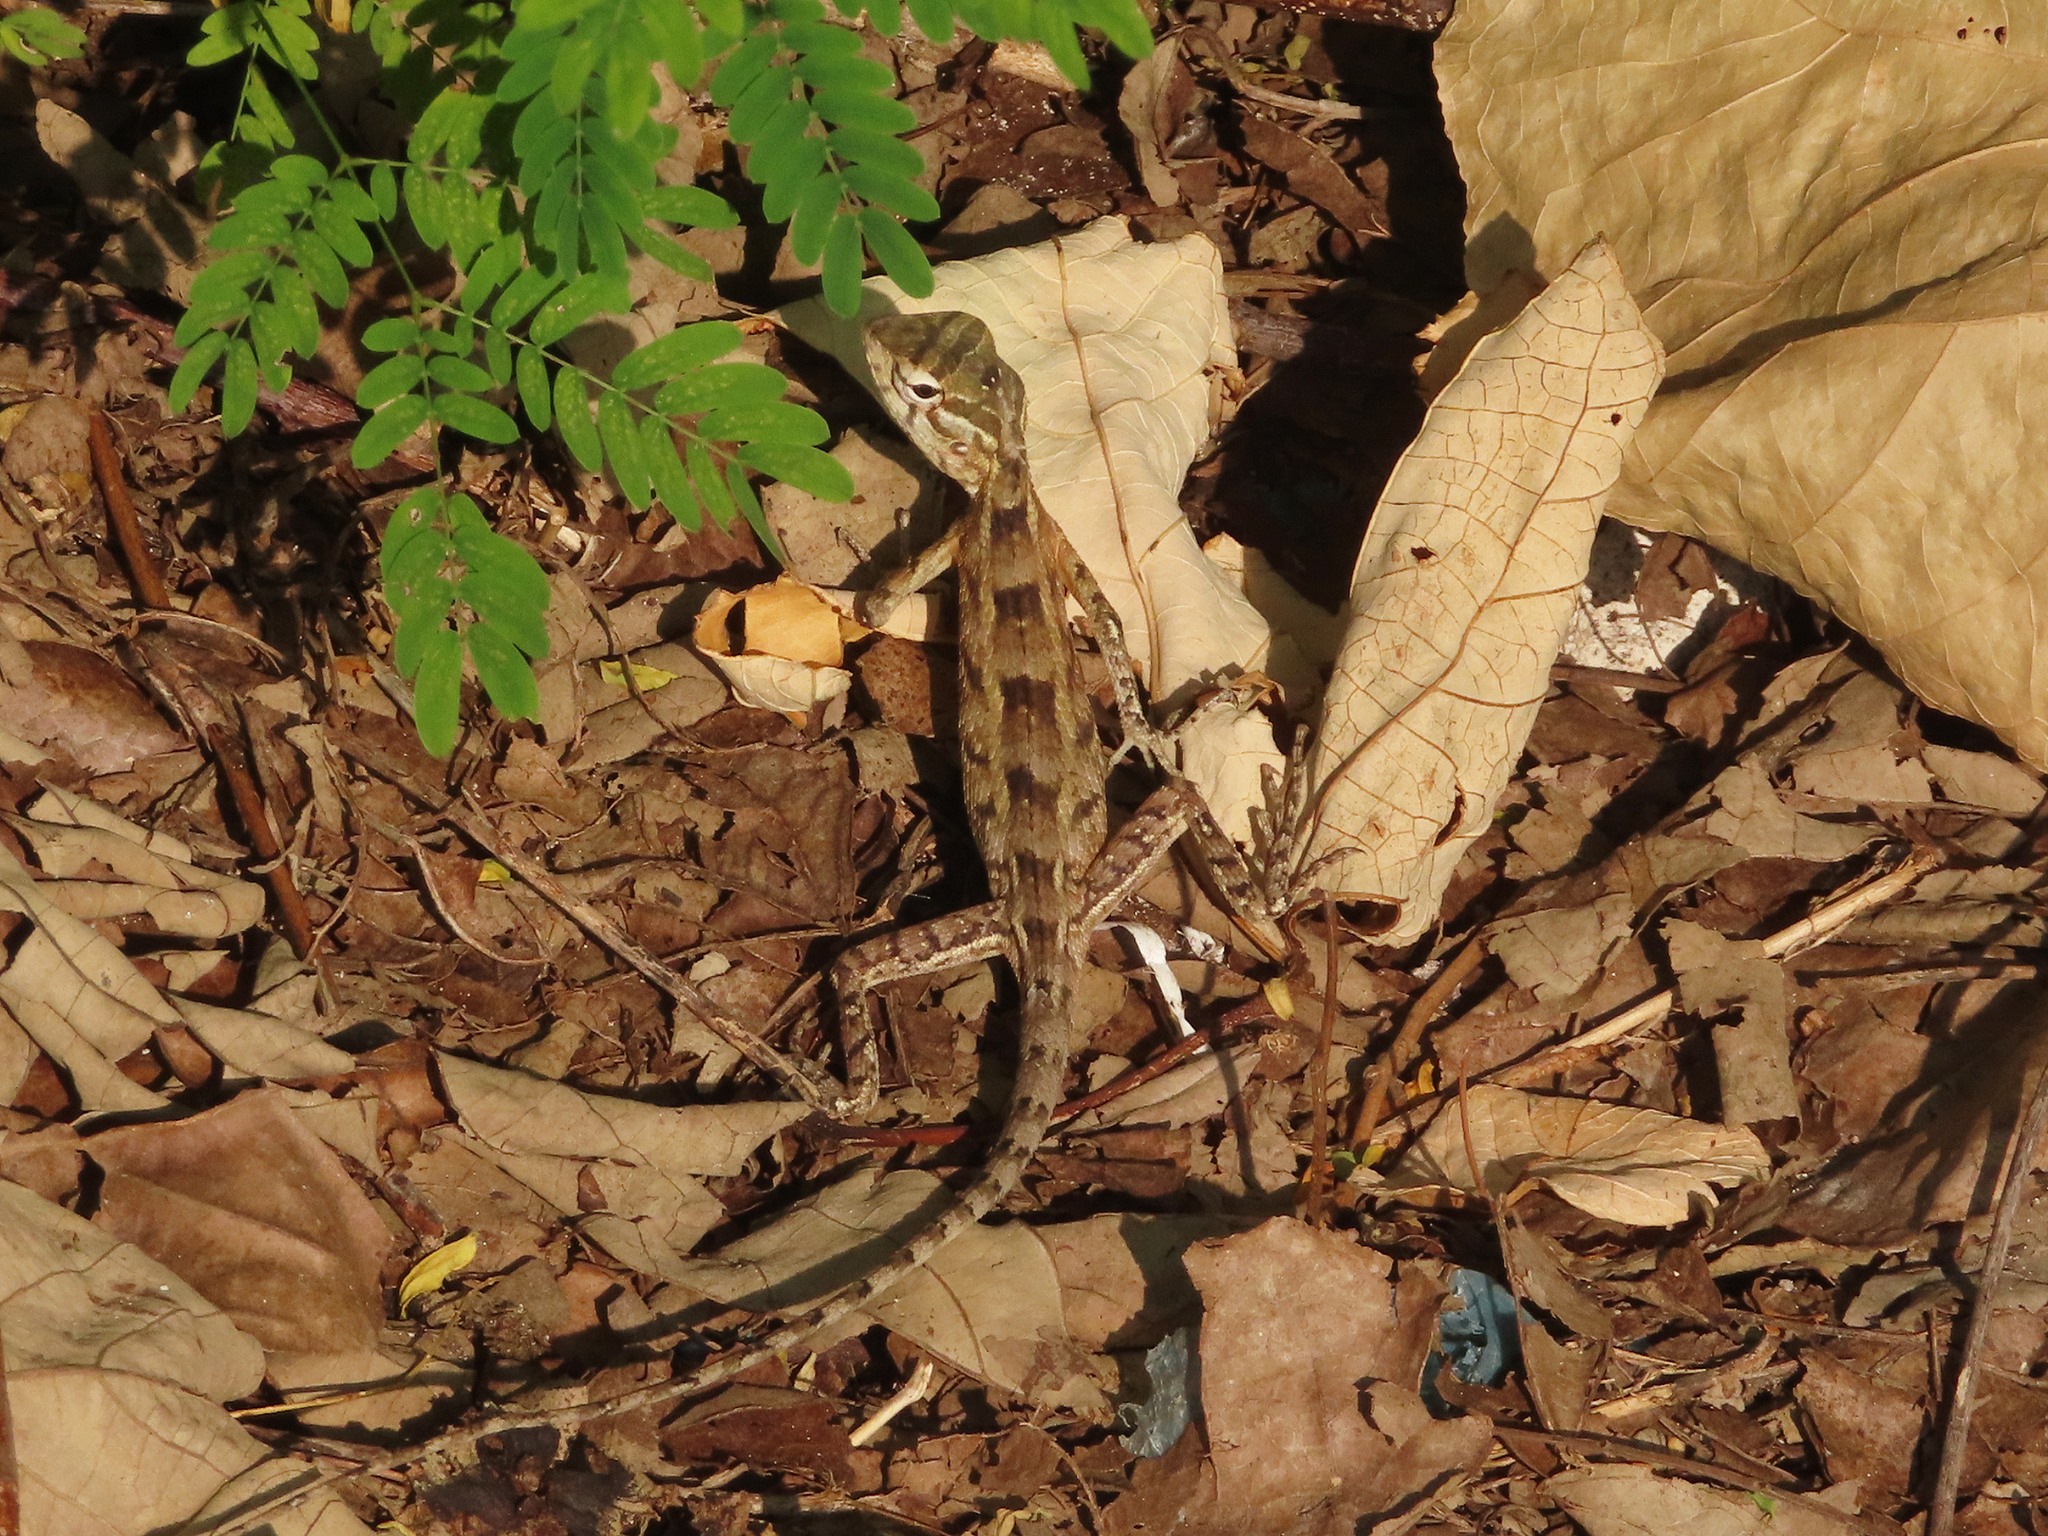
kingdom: Animalia
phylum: Chordata
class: Squamata
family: Agamidae
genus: Calotes
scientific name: Calotes versicolor
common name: Oriental garden lizard
